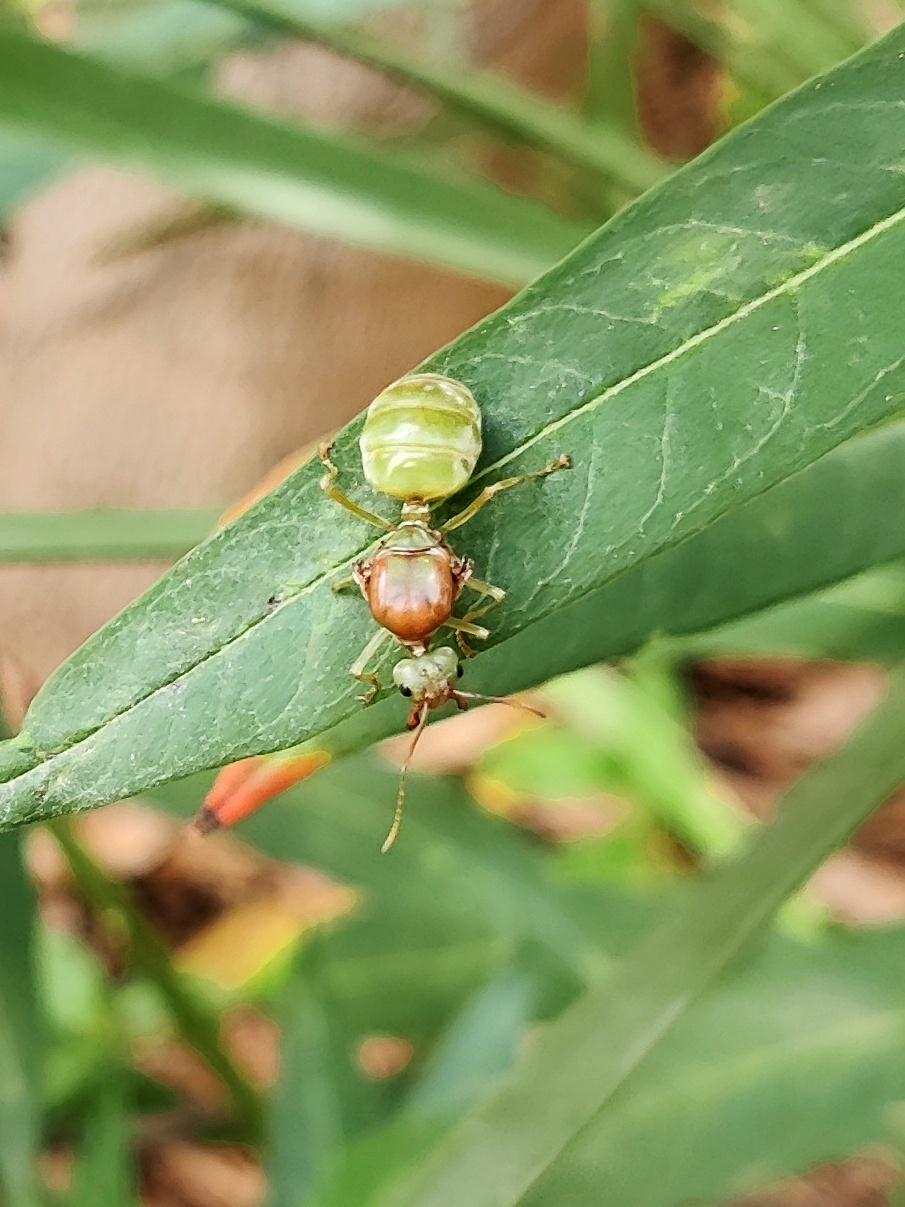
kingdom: Animalia
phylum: Arthropoda
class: Insecta
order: Hymenoptera
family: Formicidae
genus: Oecophylla
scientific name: Oecophylla smaragdina
